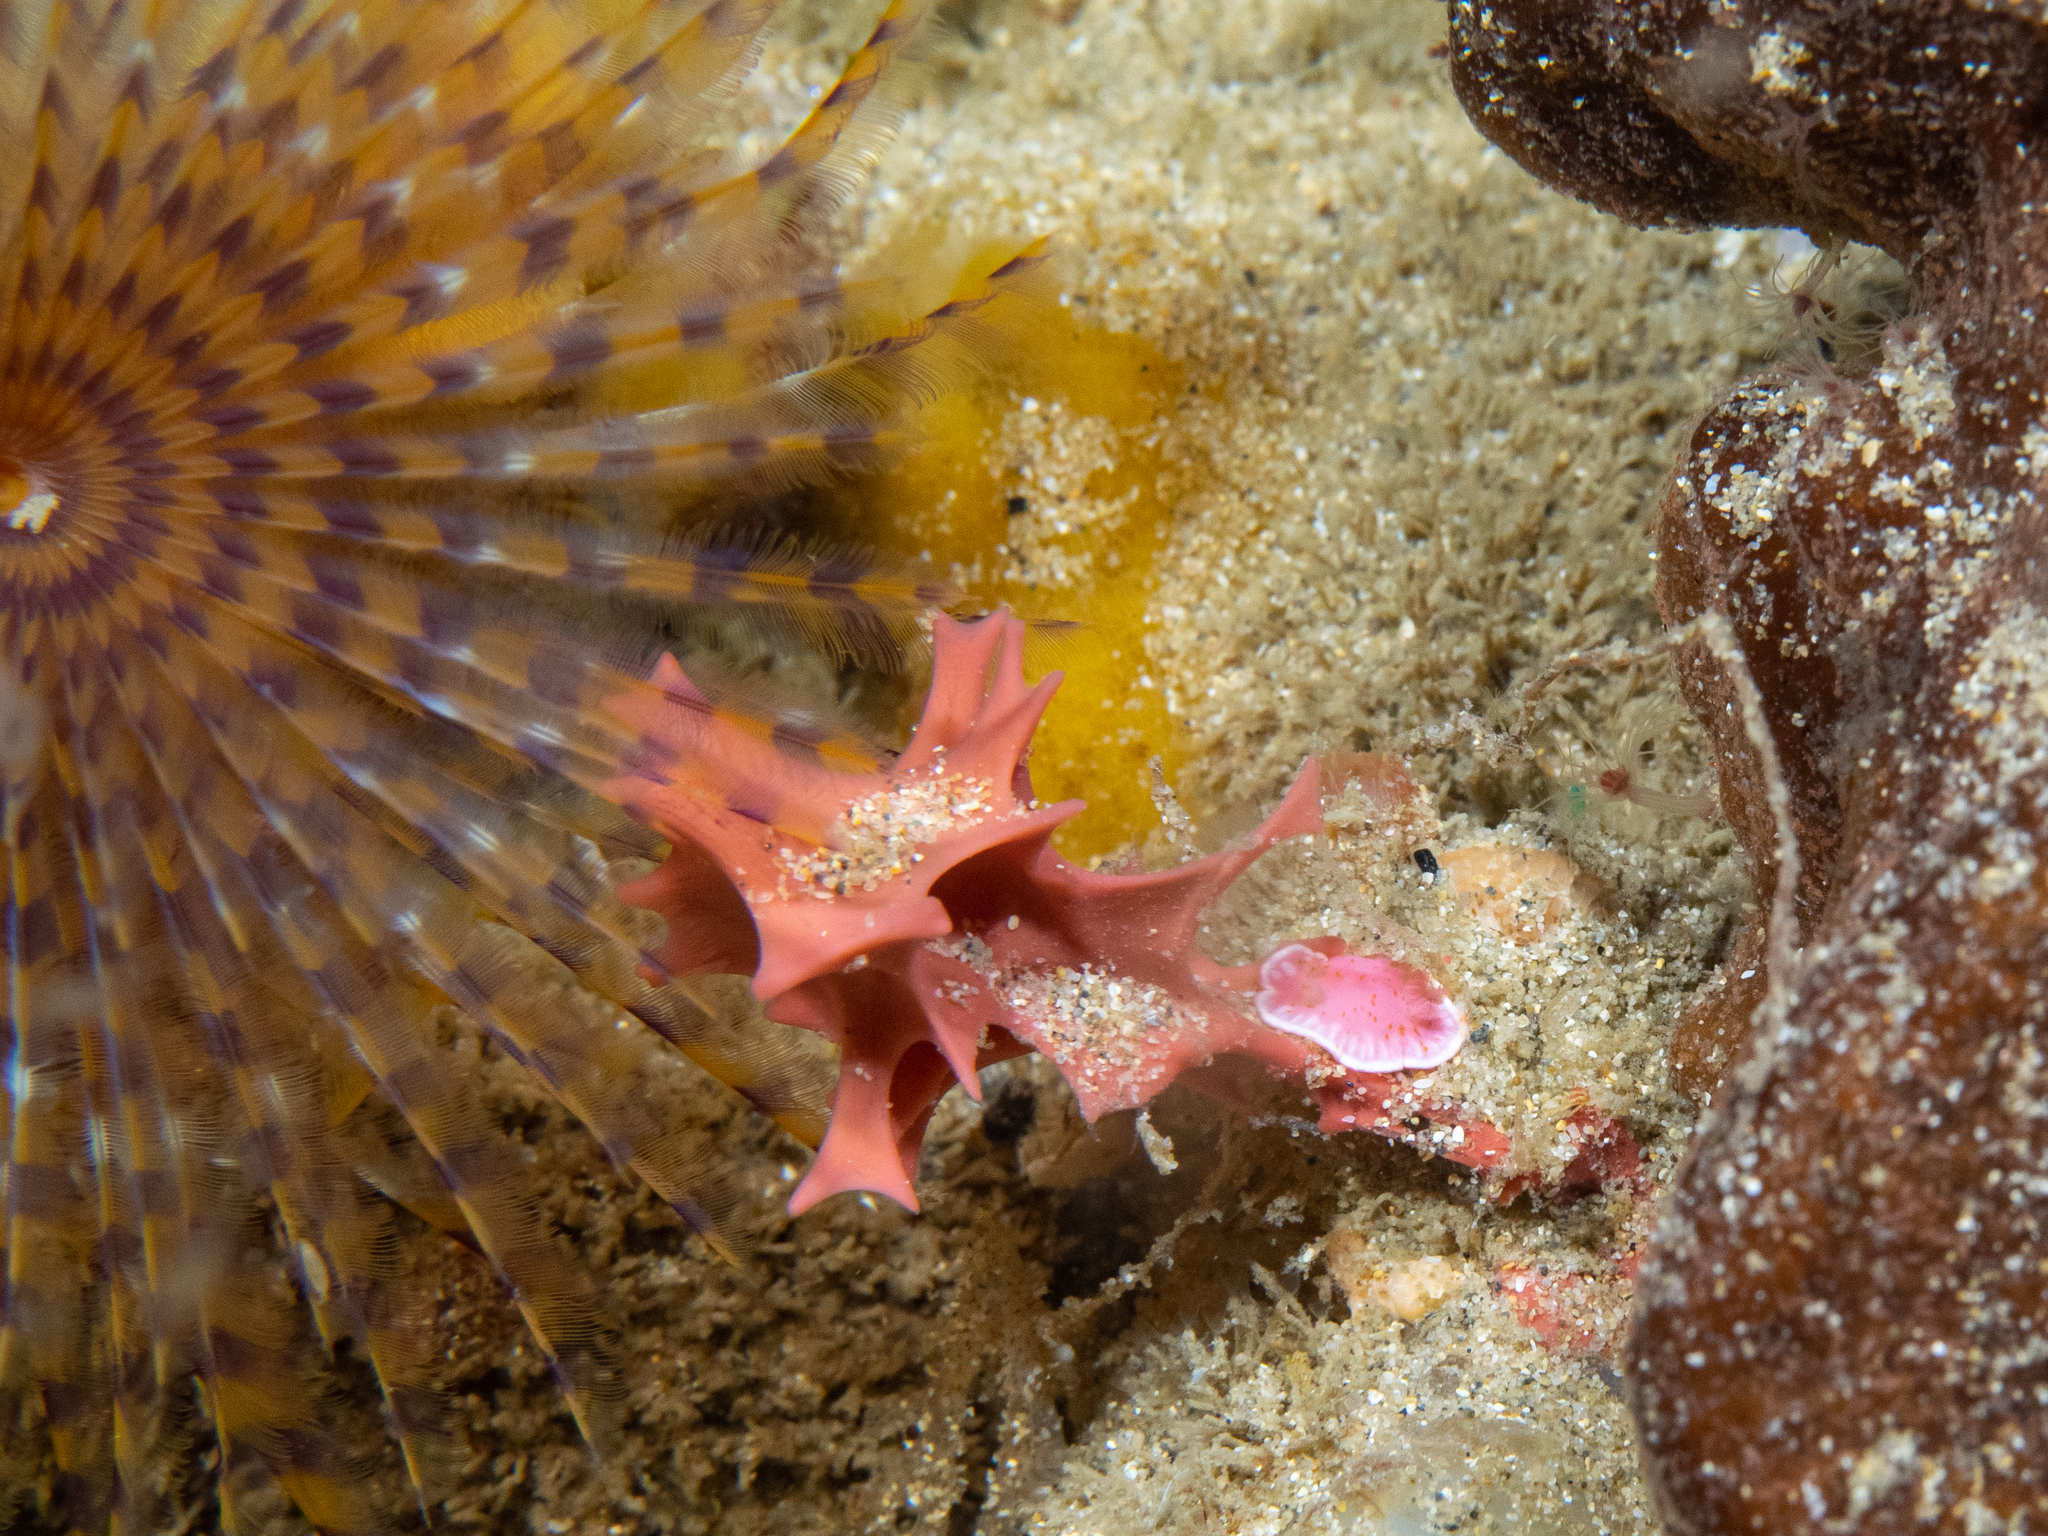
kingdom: Animalia
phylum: Mollusca
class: Gastropoda
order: Nudibranchia
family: Chromodorididae
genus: Verconia
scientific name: Verconia haliclona
